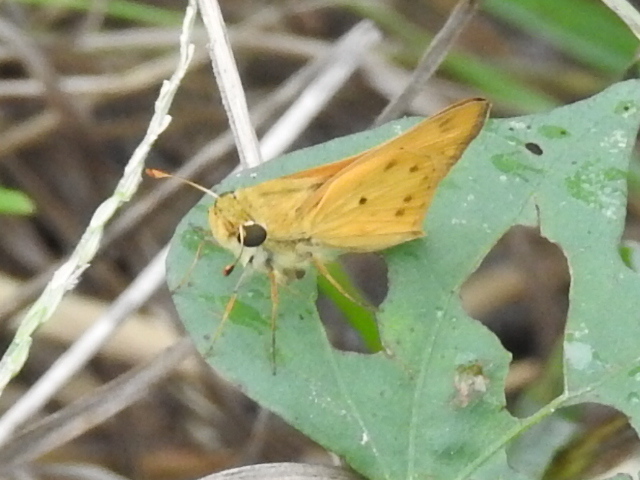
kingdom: Animalia
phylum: Arthropoda
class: Insecta
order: Lepidoptera
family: Hesperiidae
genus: Hylephila
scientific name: Hylephila phyleus
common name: Fiery skipper
